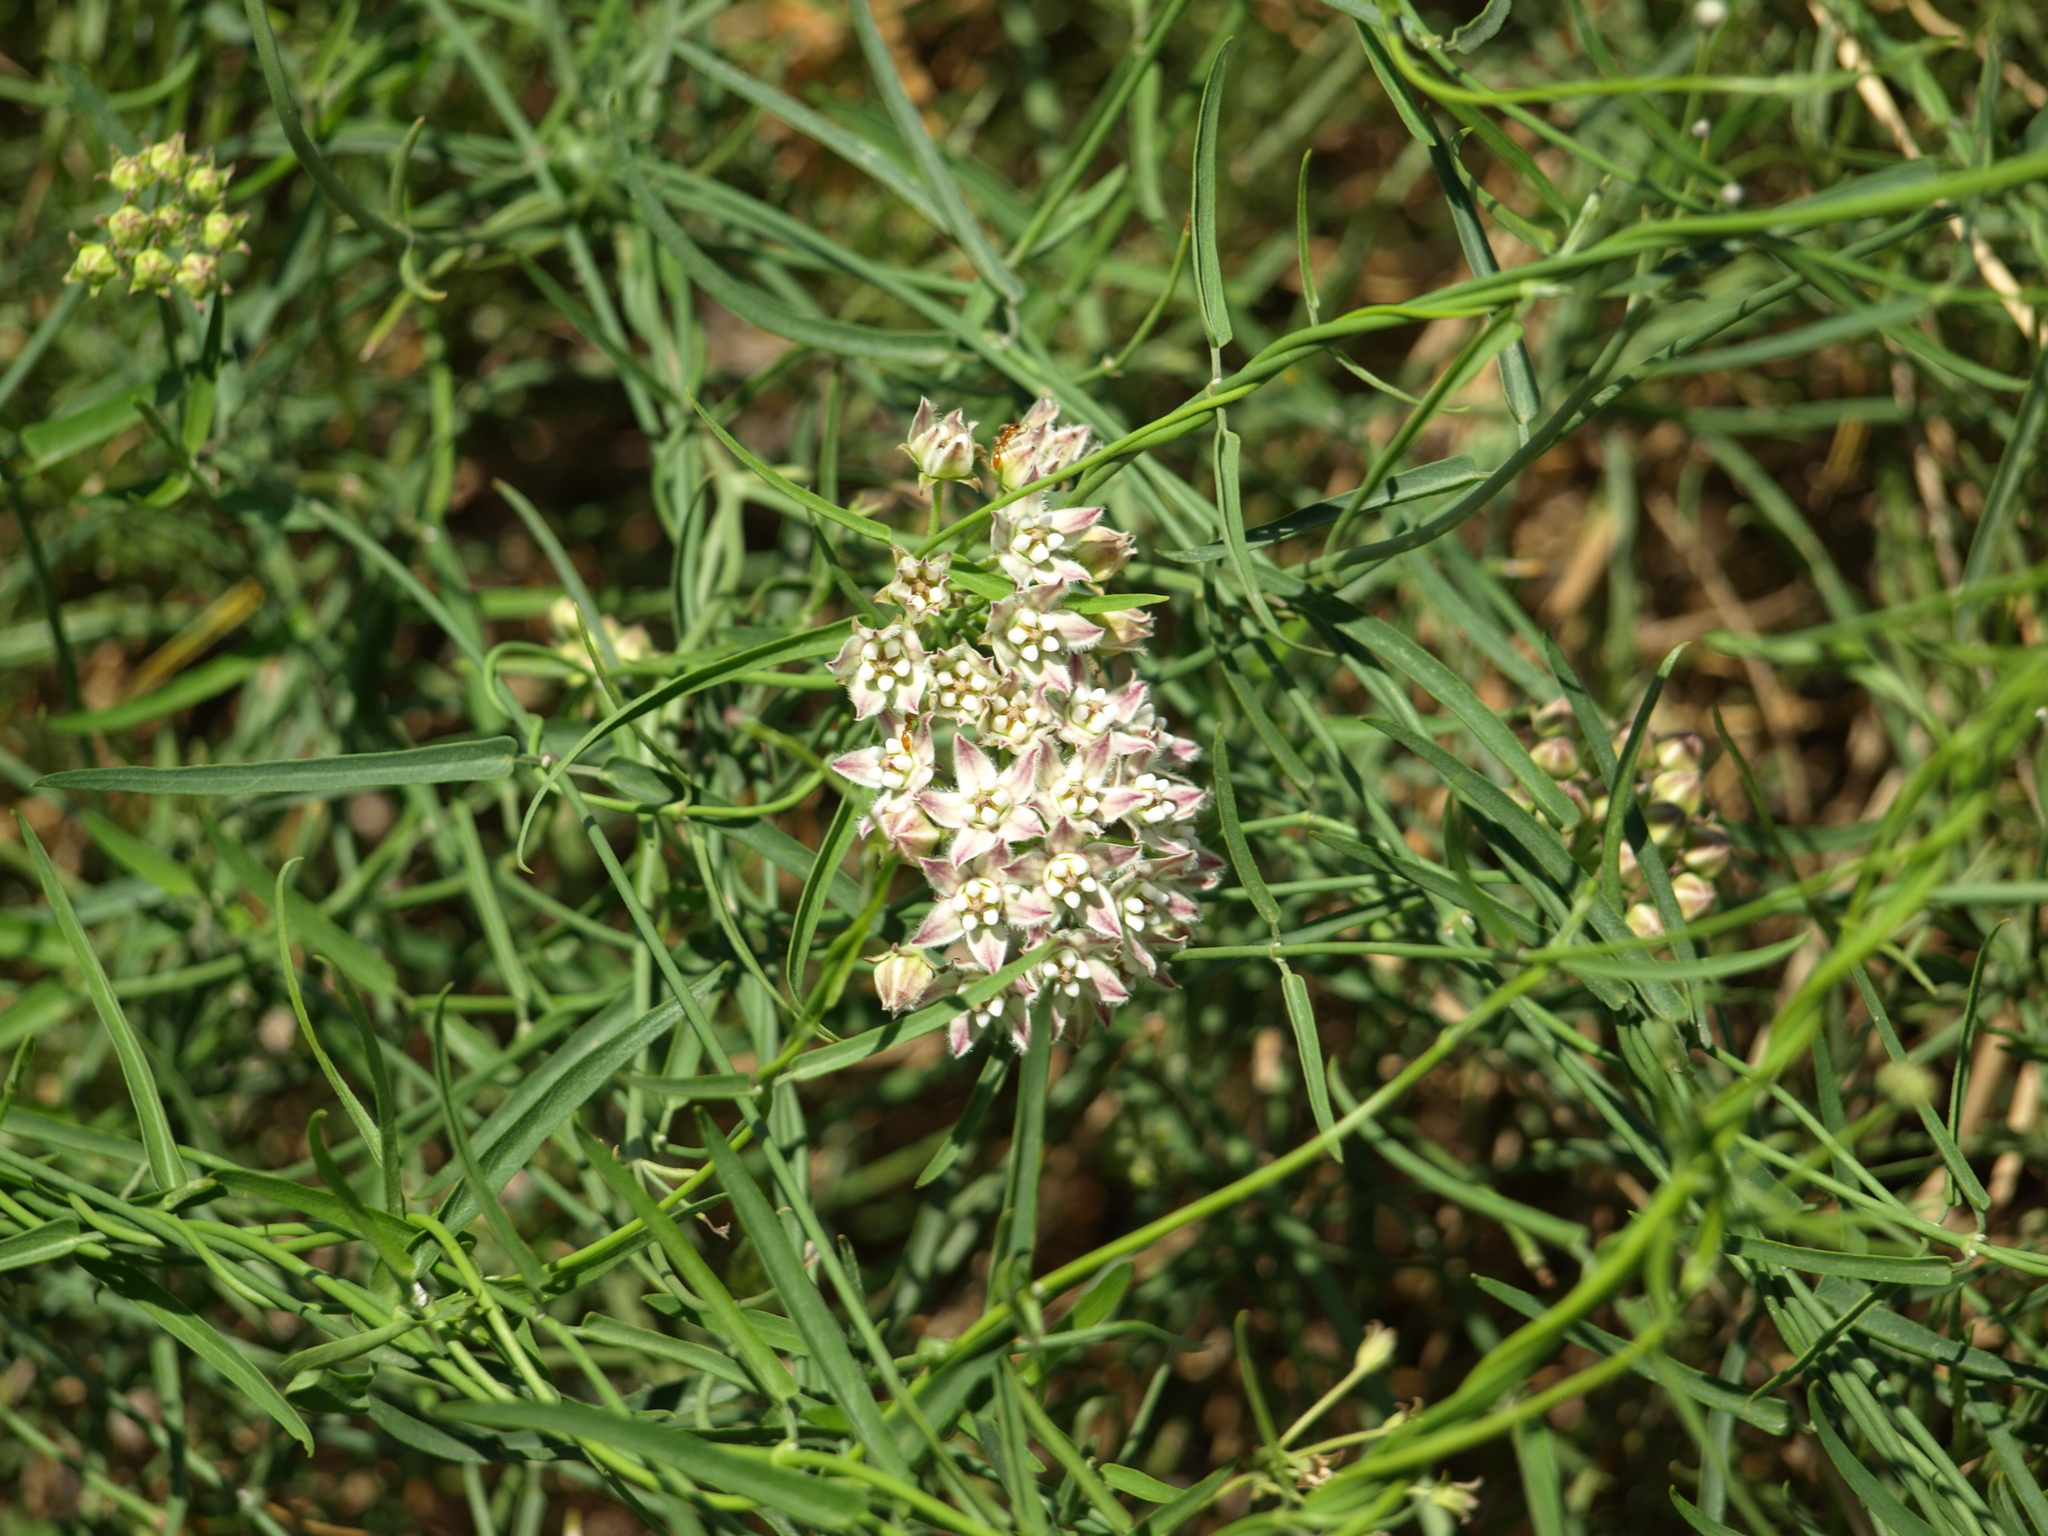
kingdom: Plantae
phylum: Tracheophyta
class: Magnoliopsida
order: Gentianales
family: Apocynaceae
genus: Funastrum
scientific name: Funastrum heterophyllum
